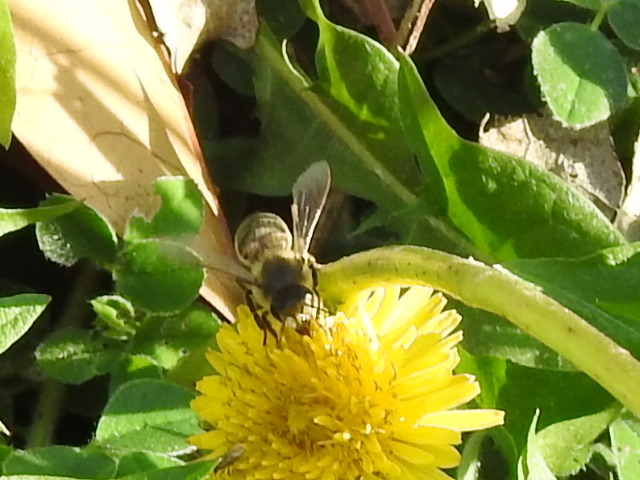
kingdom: Animalia
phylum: Arthropoda
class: Insecta
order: Hymenoptera
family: Apidae
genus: Apis
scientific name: Apis mellifera
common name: Honey bee
